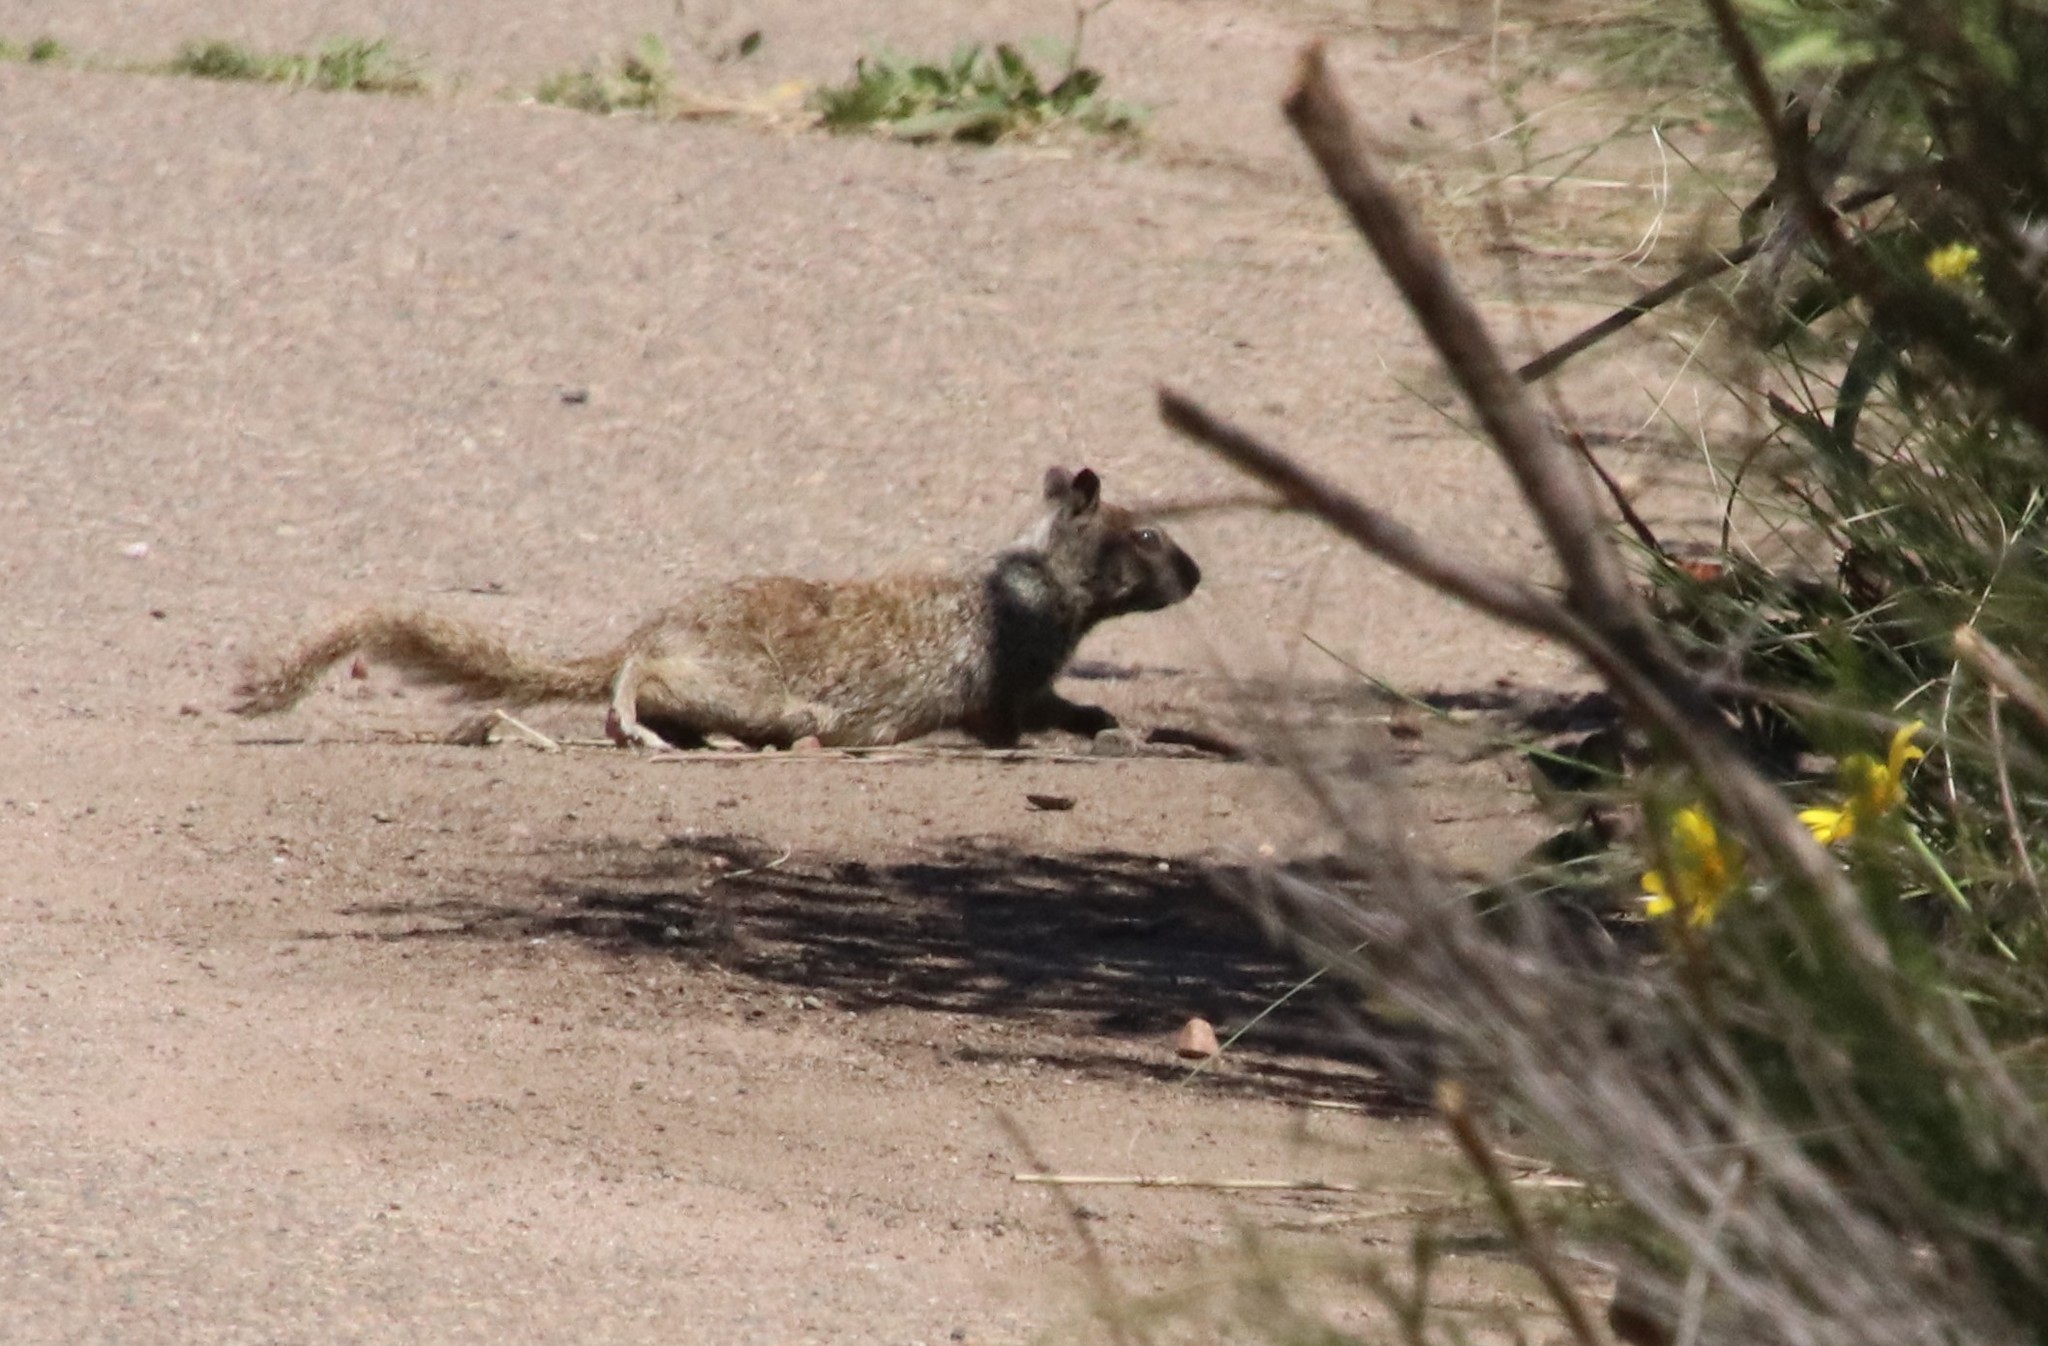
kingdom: Animalia
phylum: Chordata
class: Mammalia
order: Rodentia
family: Sciuridae
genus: Otospermophilus
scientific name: Otospermophilus beecheyi
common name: California ground squirrel
